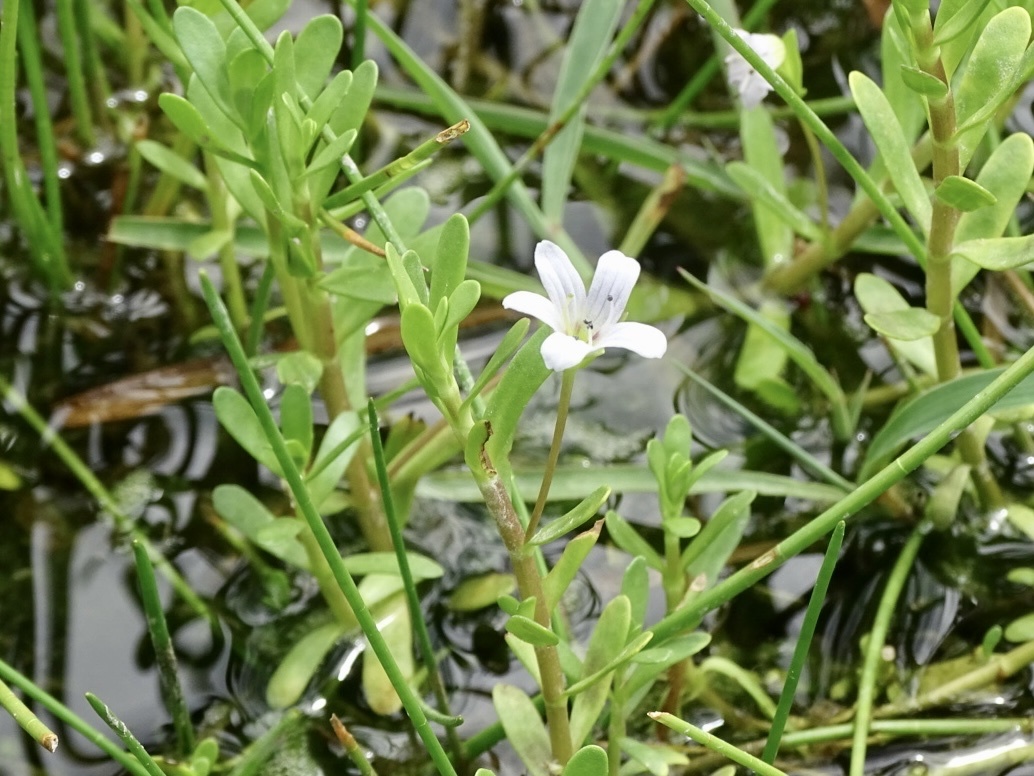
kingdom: Plantae
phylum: Tracheophyta
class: Magnoliopsida
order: Lamiales
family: Plantaginaceae
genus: Bacopa
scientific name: Bacopa monnieri
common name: Indian-pennywort
